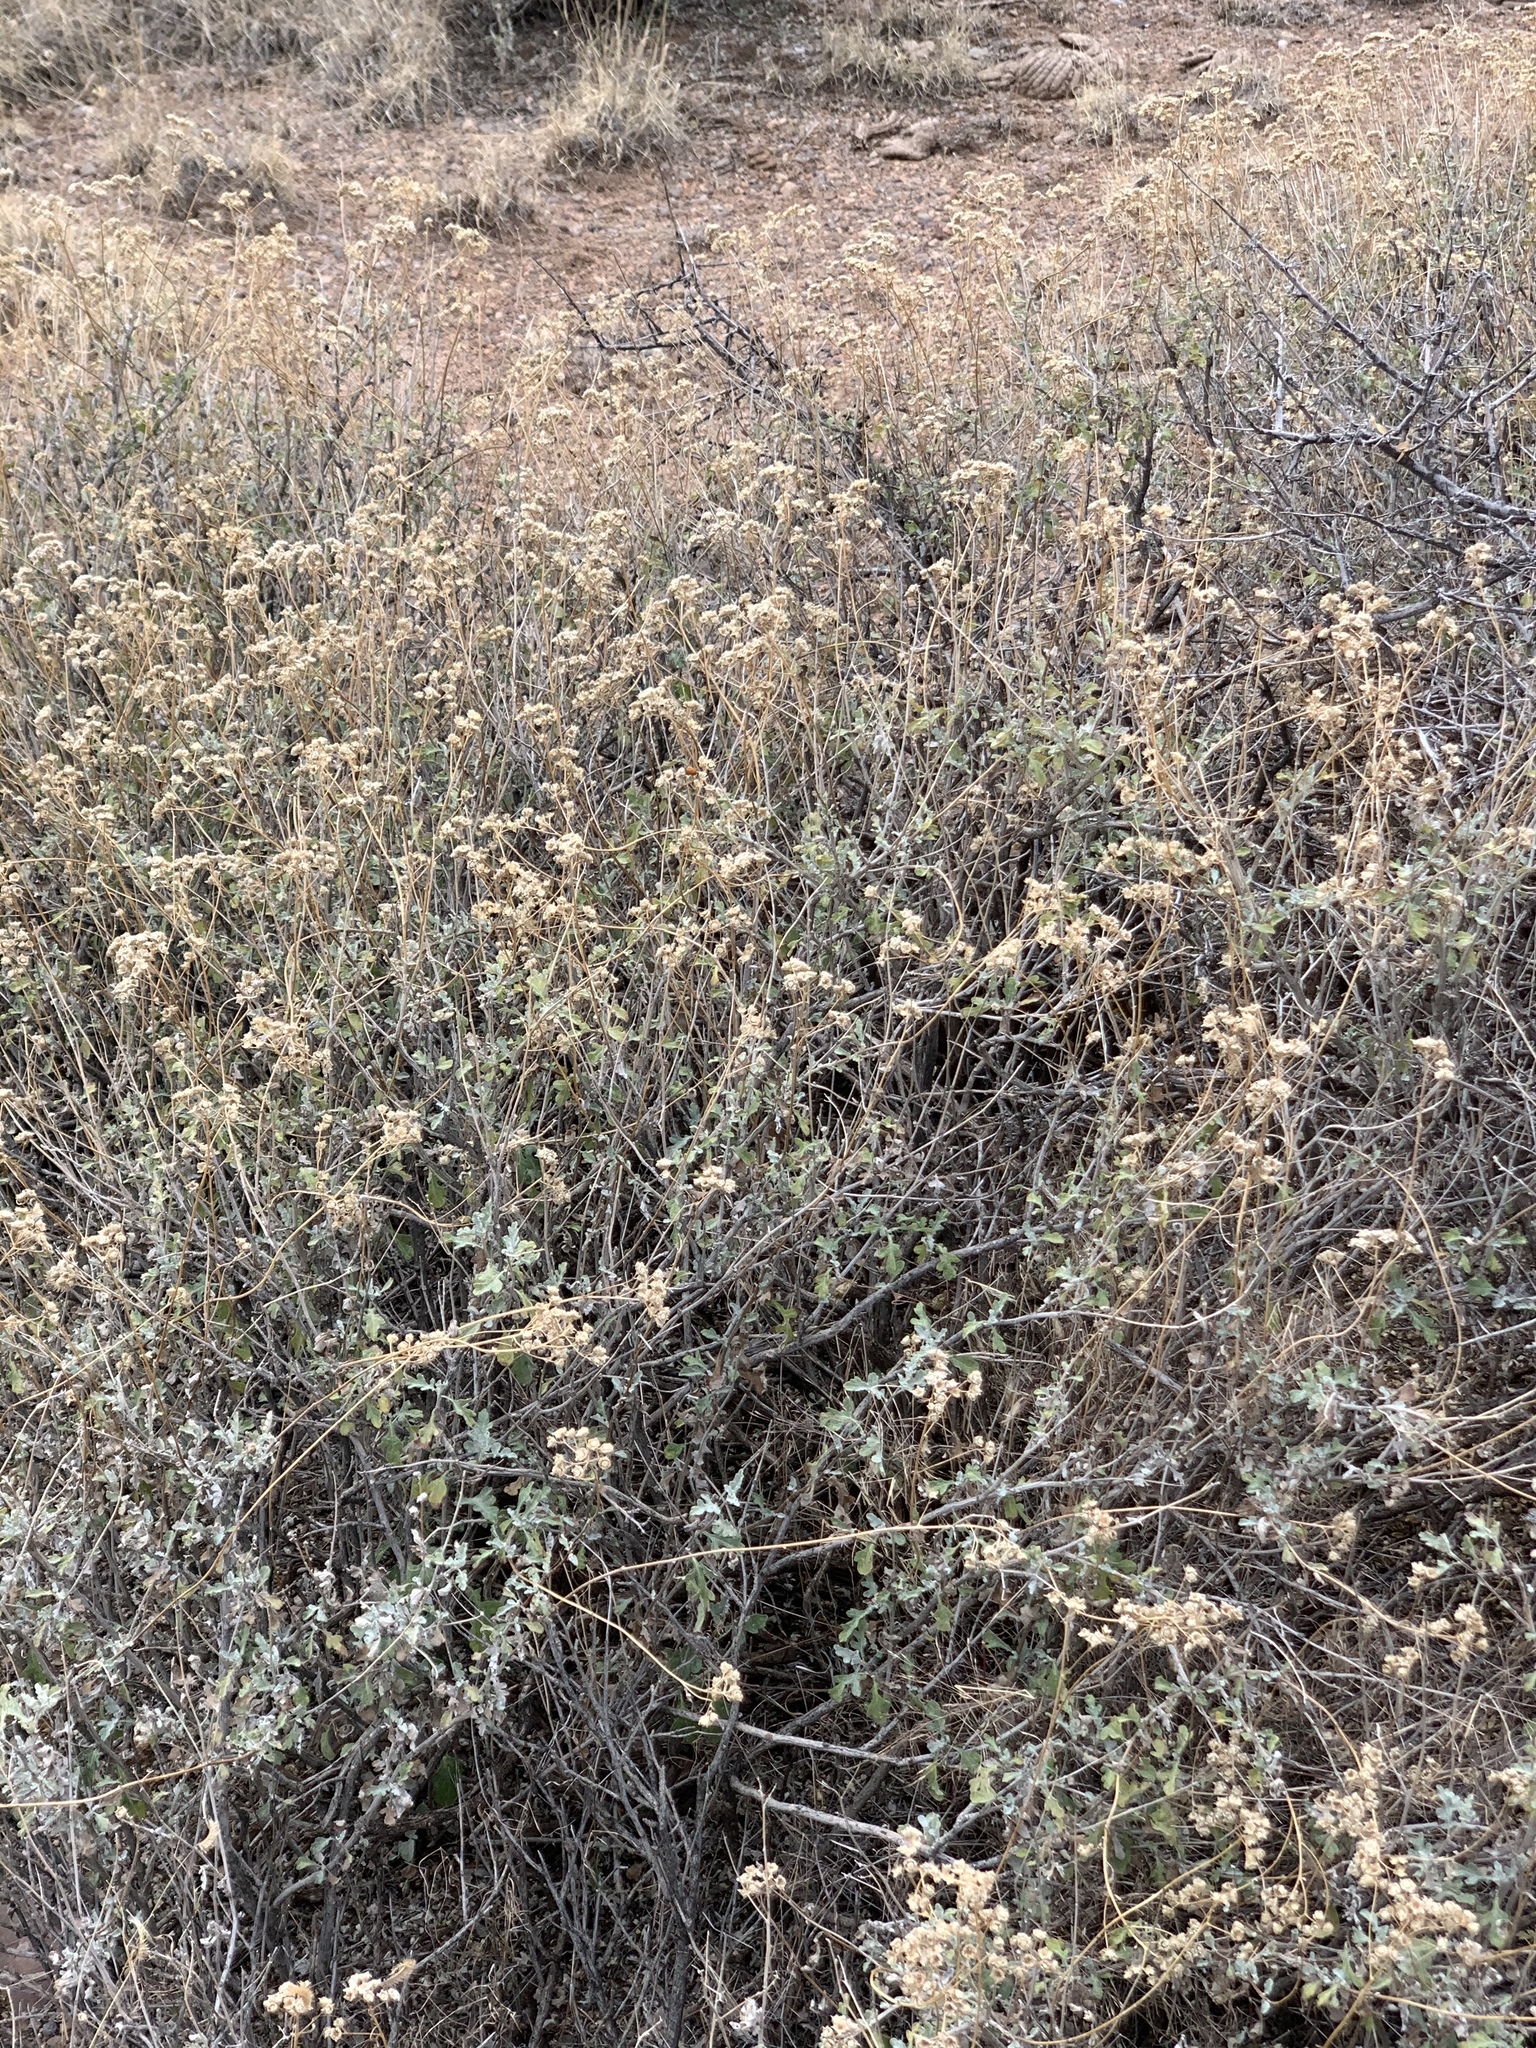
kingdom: Plantae
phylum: Tracheophyta
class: Magnoliopsida
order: Asterales
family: Asteraceae
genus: Parthenium
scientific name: Parthenium incanum
